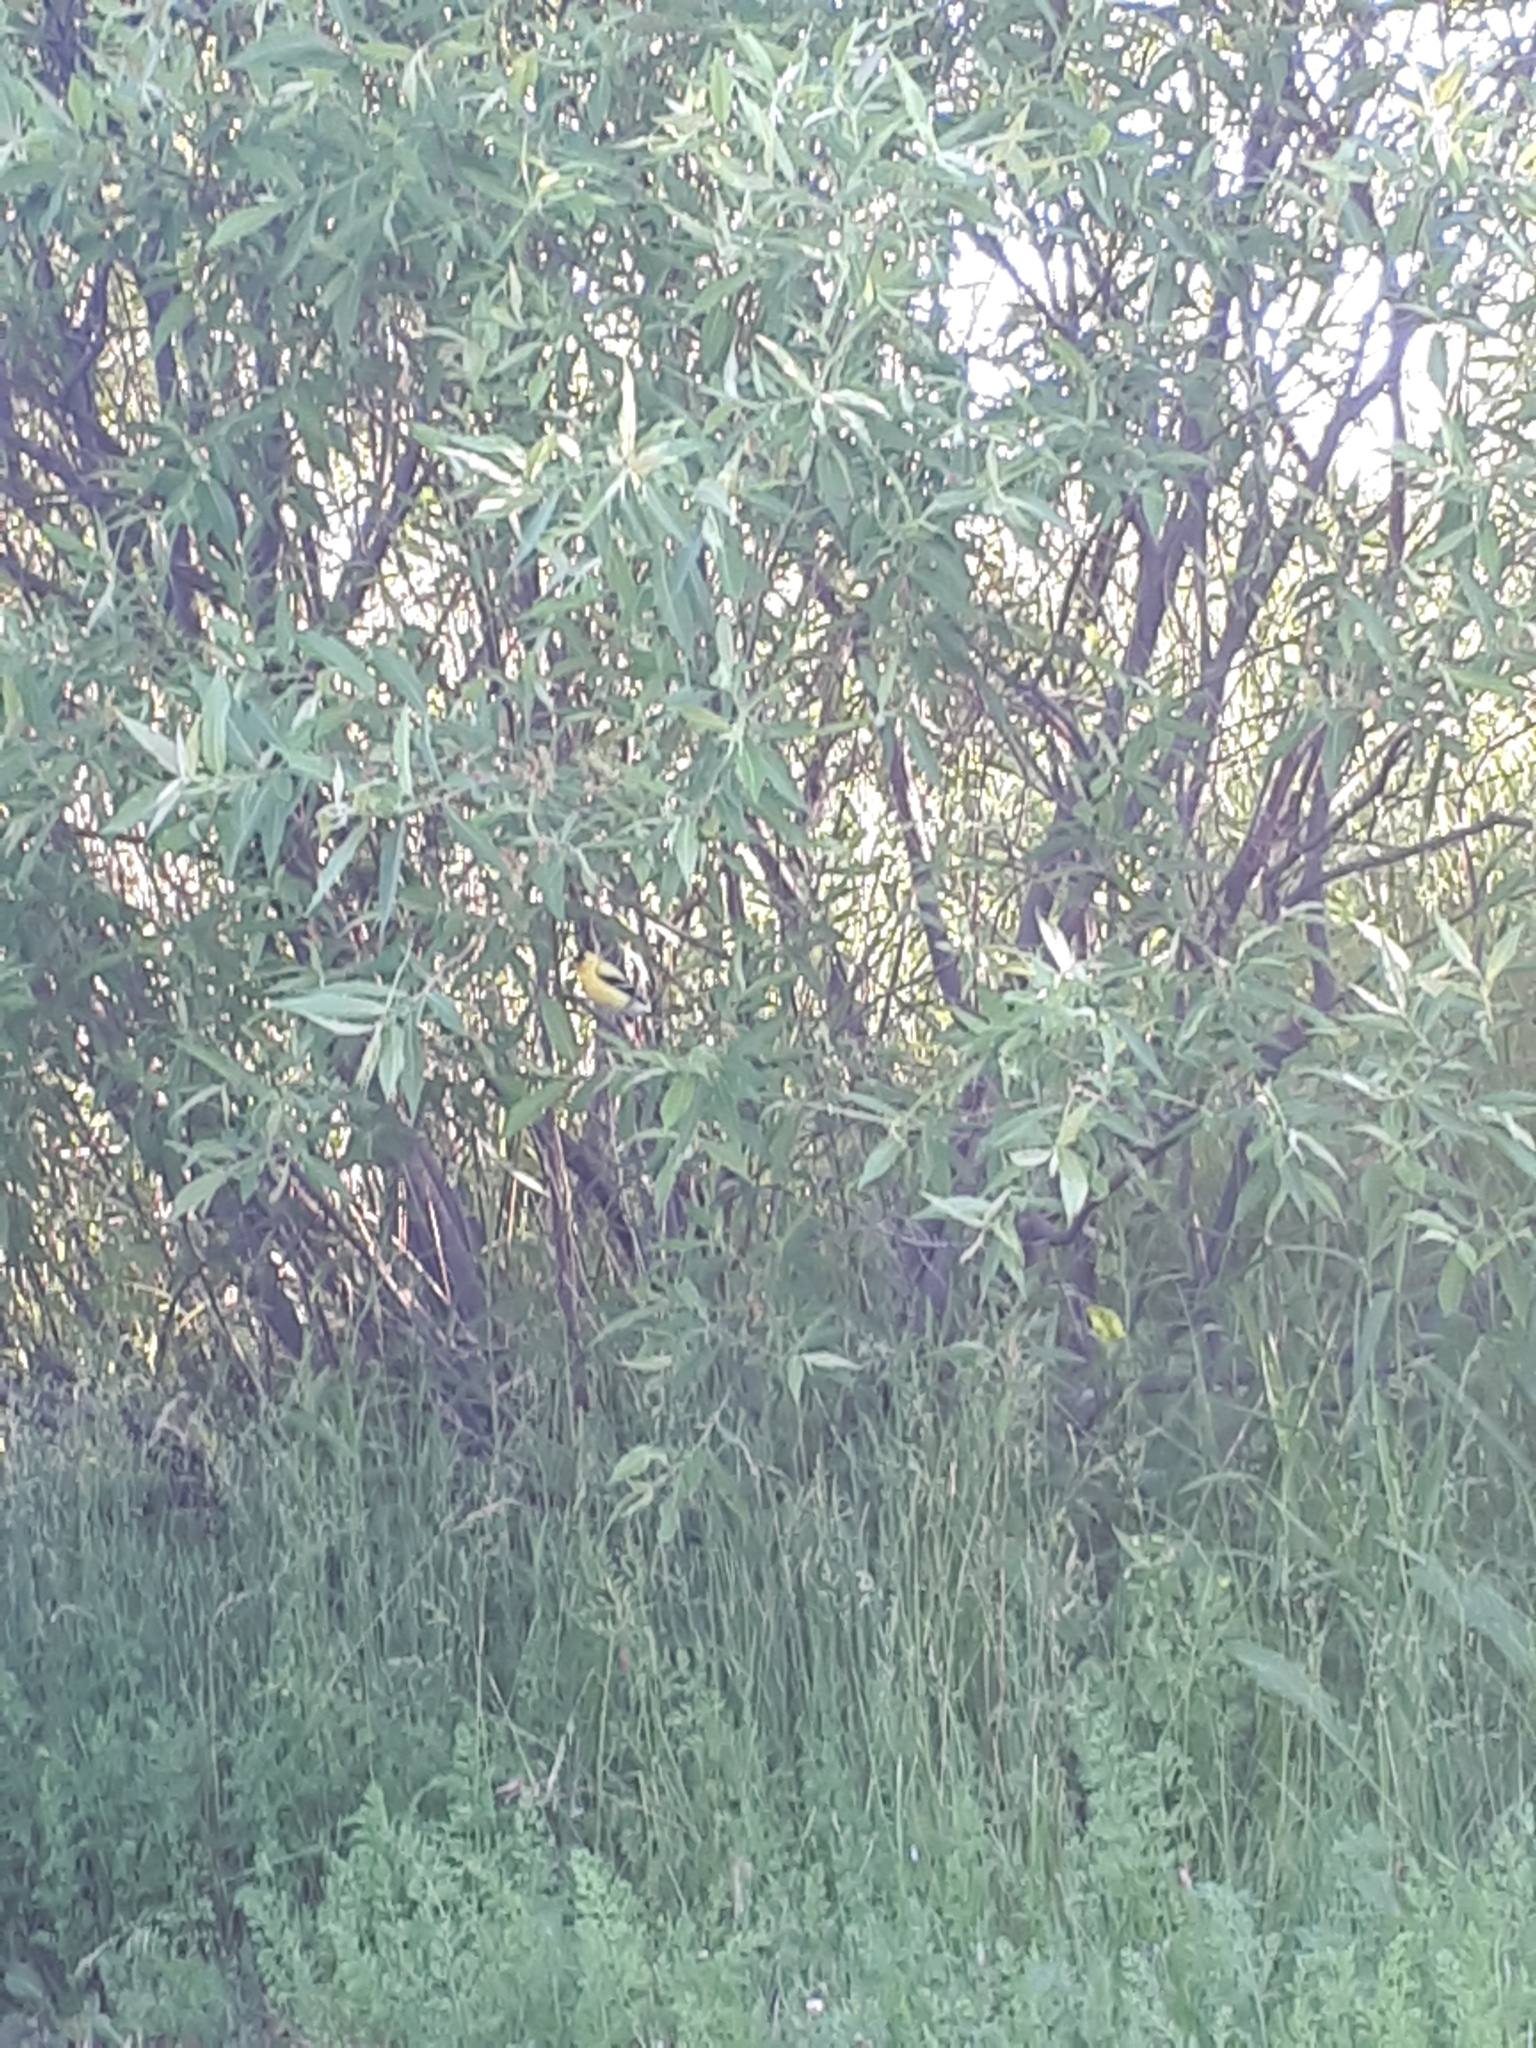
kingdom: Animalia
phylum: Chordata
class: Aves
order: Passeriformes
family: Fringillidae
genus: Spinus
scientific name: Spinus tristis
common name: American goldfinch
